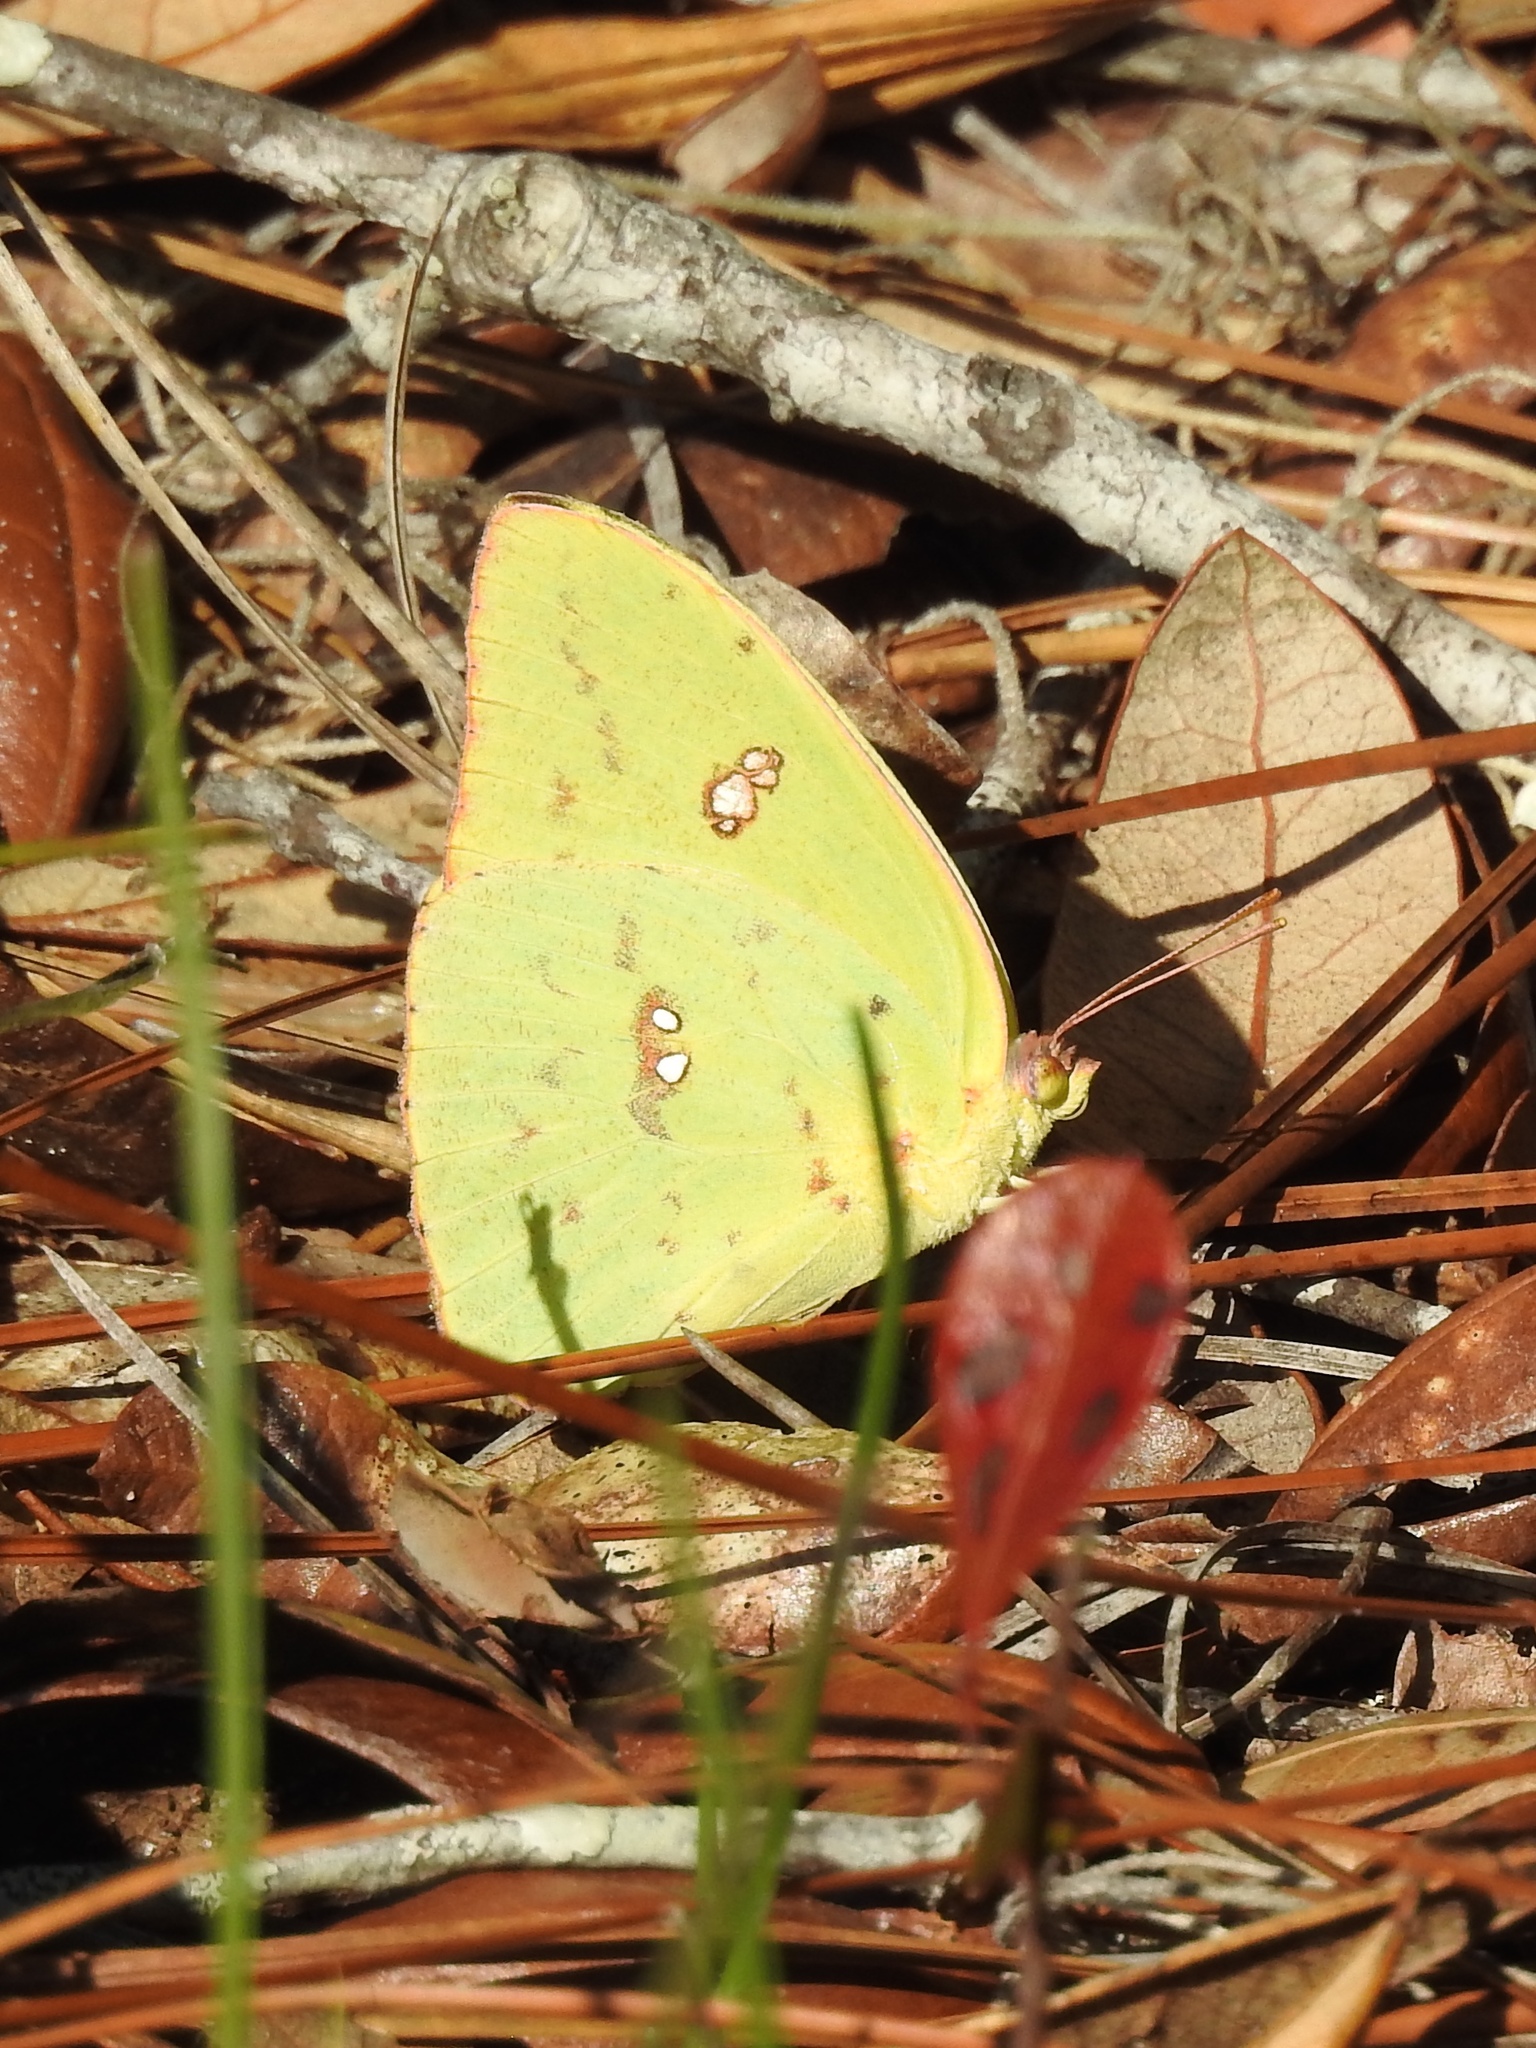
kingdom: Animalia
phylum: Arthropoda
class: Insecta
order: Lepidoptera
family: Pieridae
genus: Phoebis
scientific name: Phoebis sennae
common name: Cloudless sulphur
